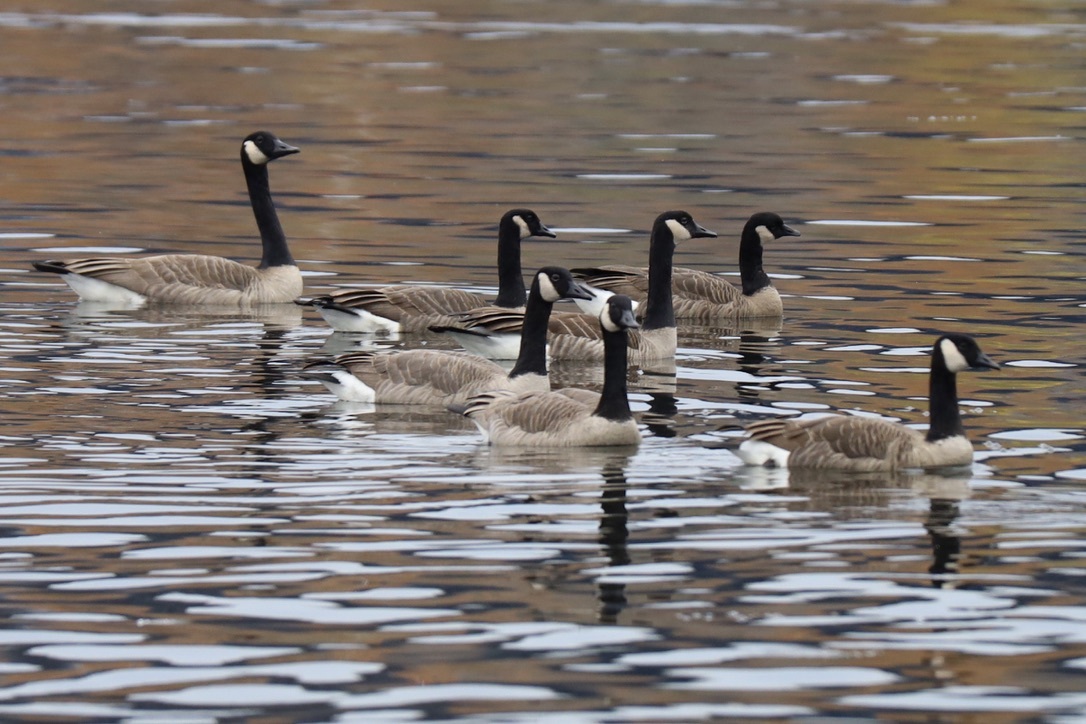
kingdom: Animalia
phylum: Chordata
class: Aves
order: Anseriformes
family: Anatidae
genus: Branta
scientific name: Branta canadensis
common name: Canada goose
